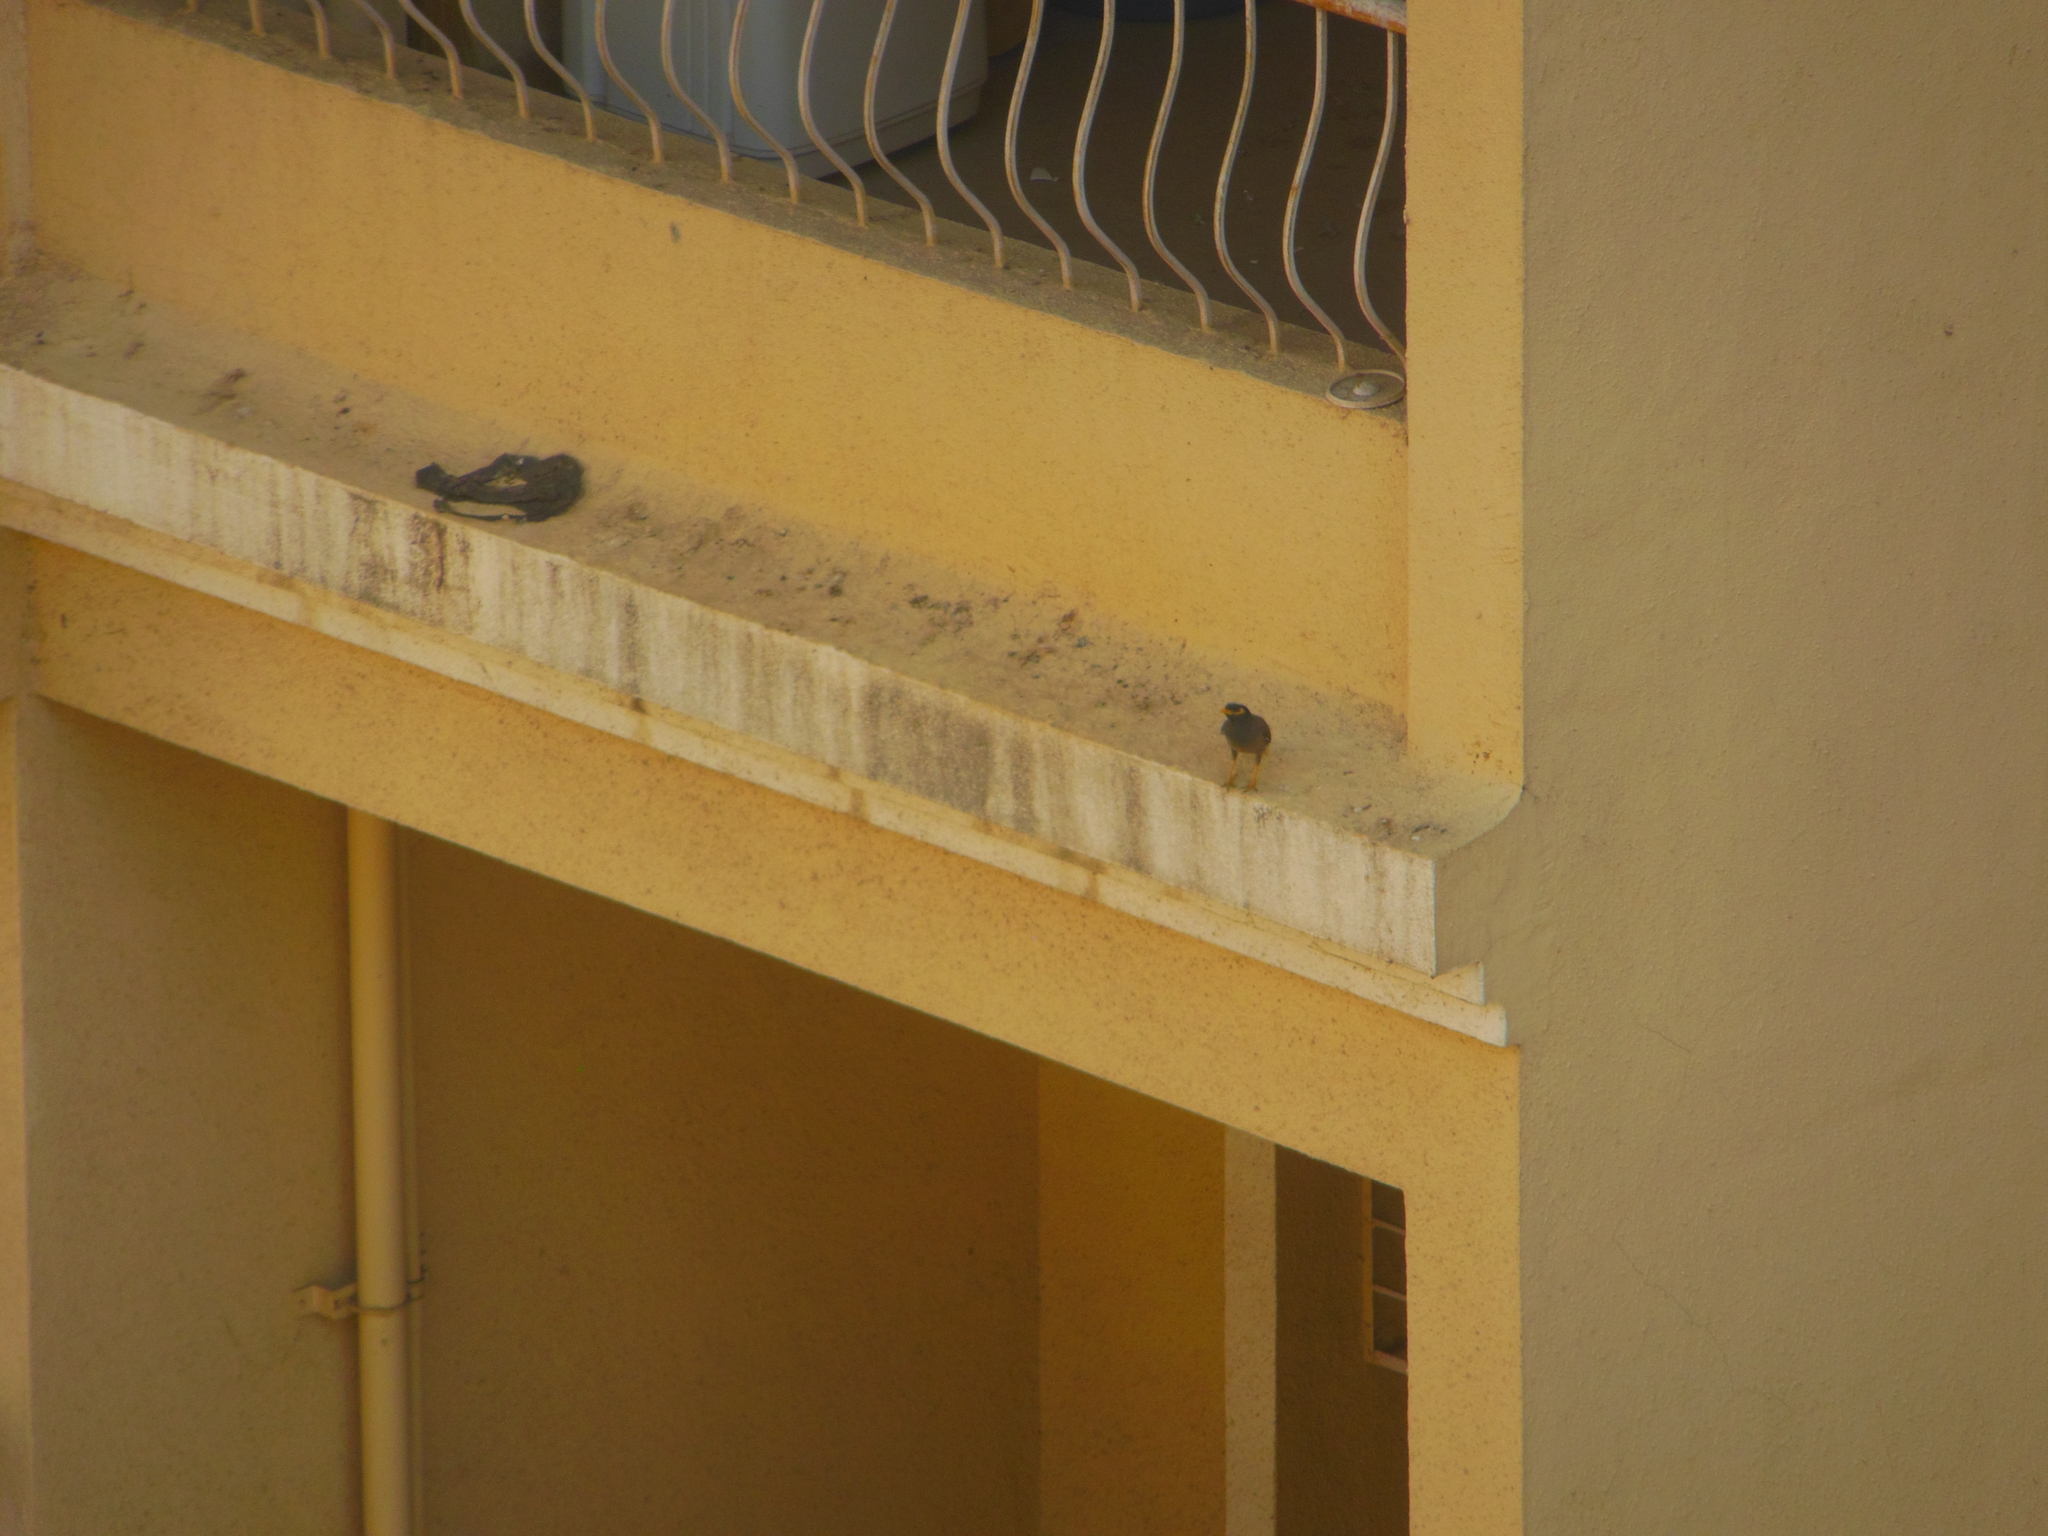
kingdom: Animalia
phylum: Chordata
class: Aves
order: Passeriformes
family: Sturnidae
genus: Acridotheres
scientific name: Acridotheres tristis
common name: Common myna
